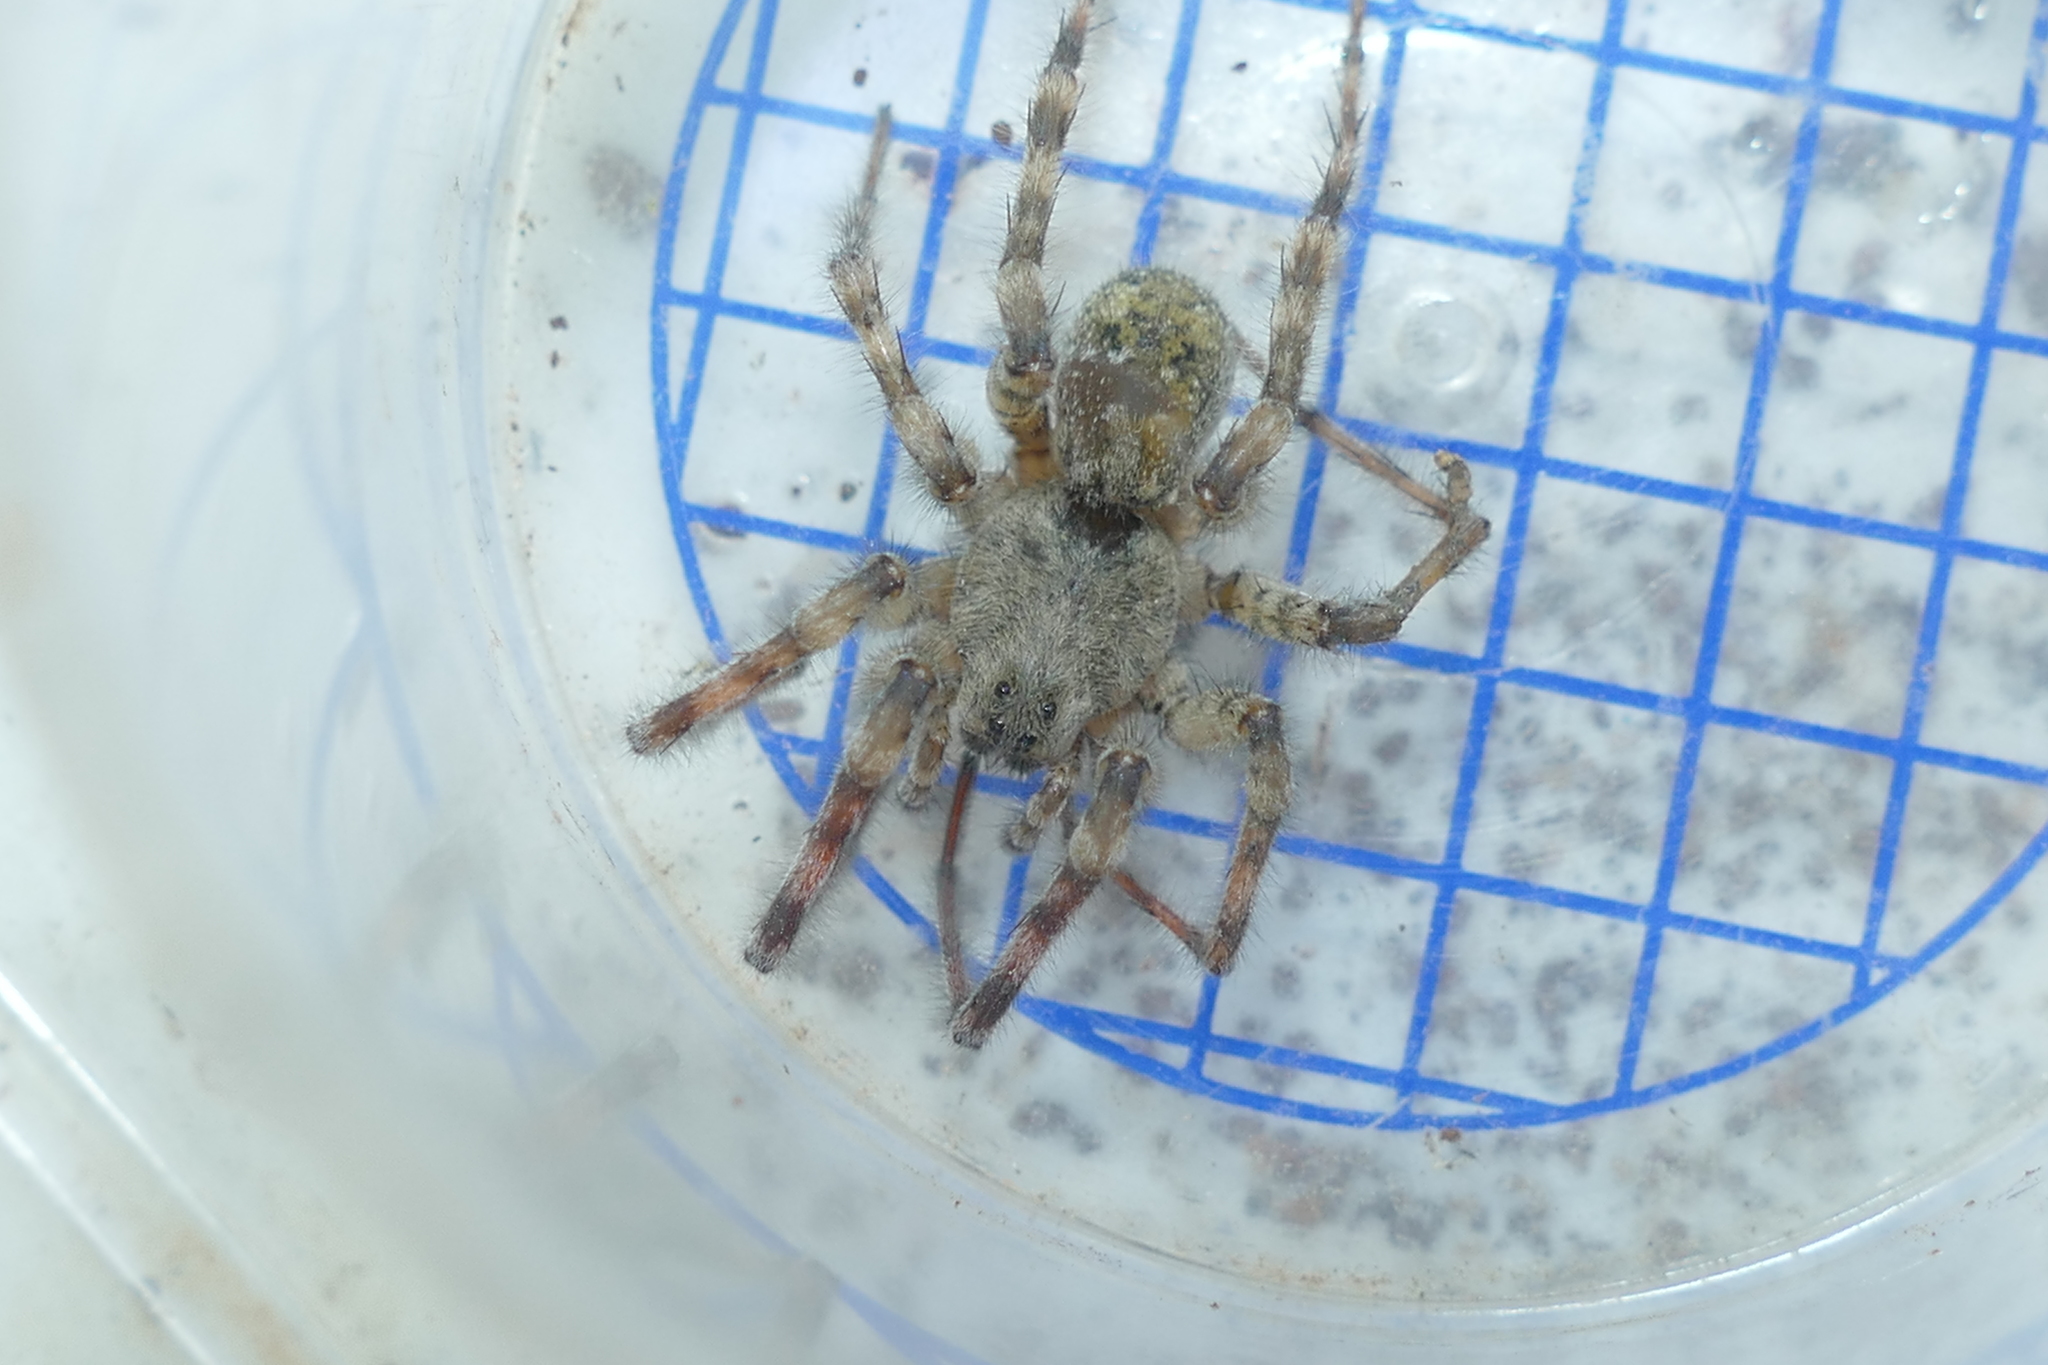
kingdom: Animalia
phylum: Arthropoda
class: Arachnida
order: Araneae
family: Lycosidae
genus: Arctosa
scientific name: Arctosa
